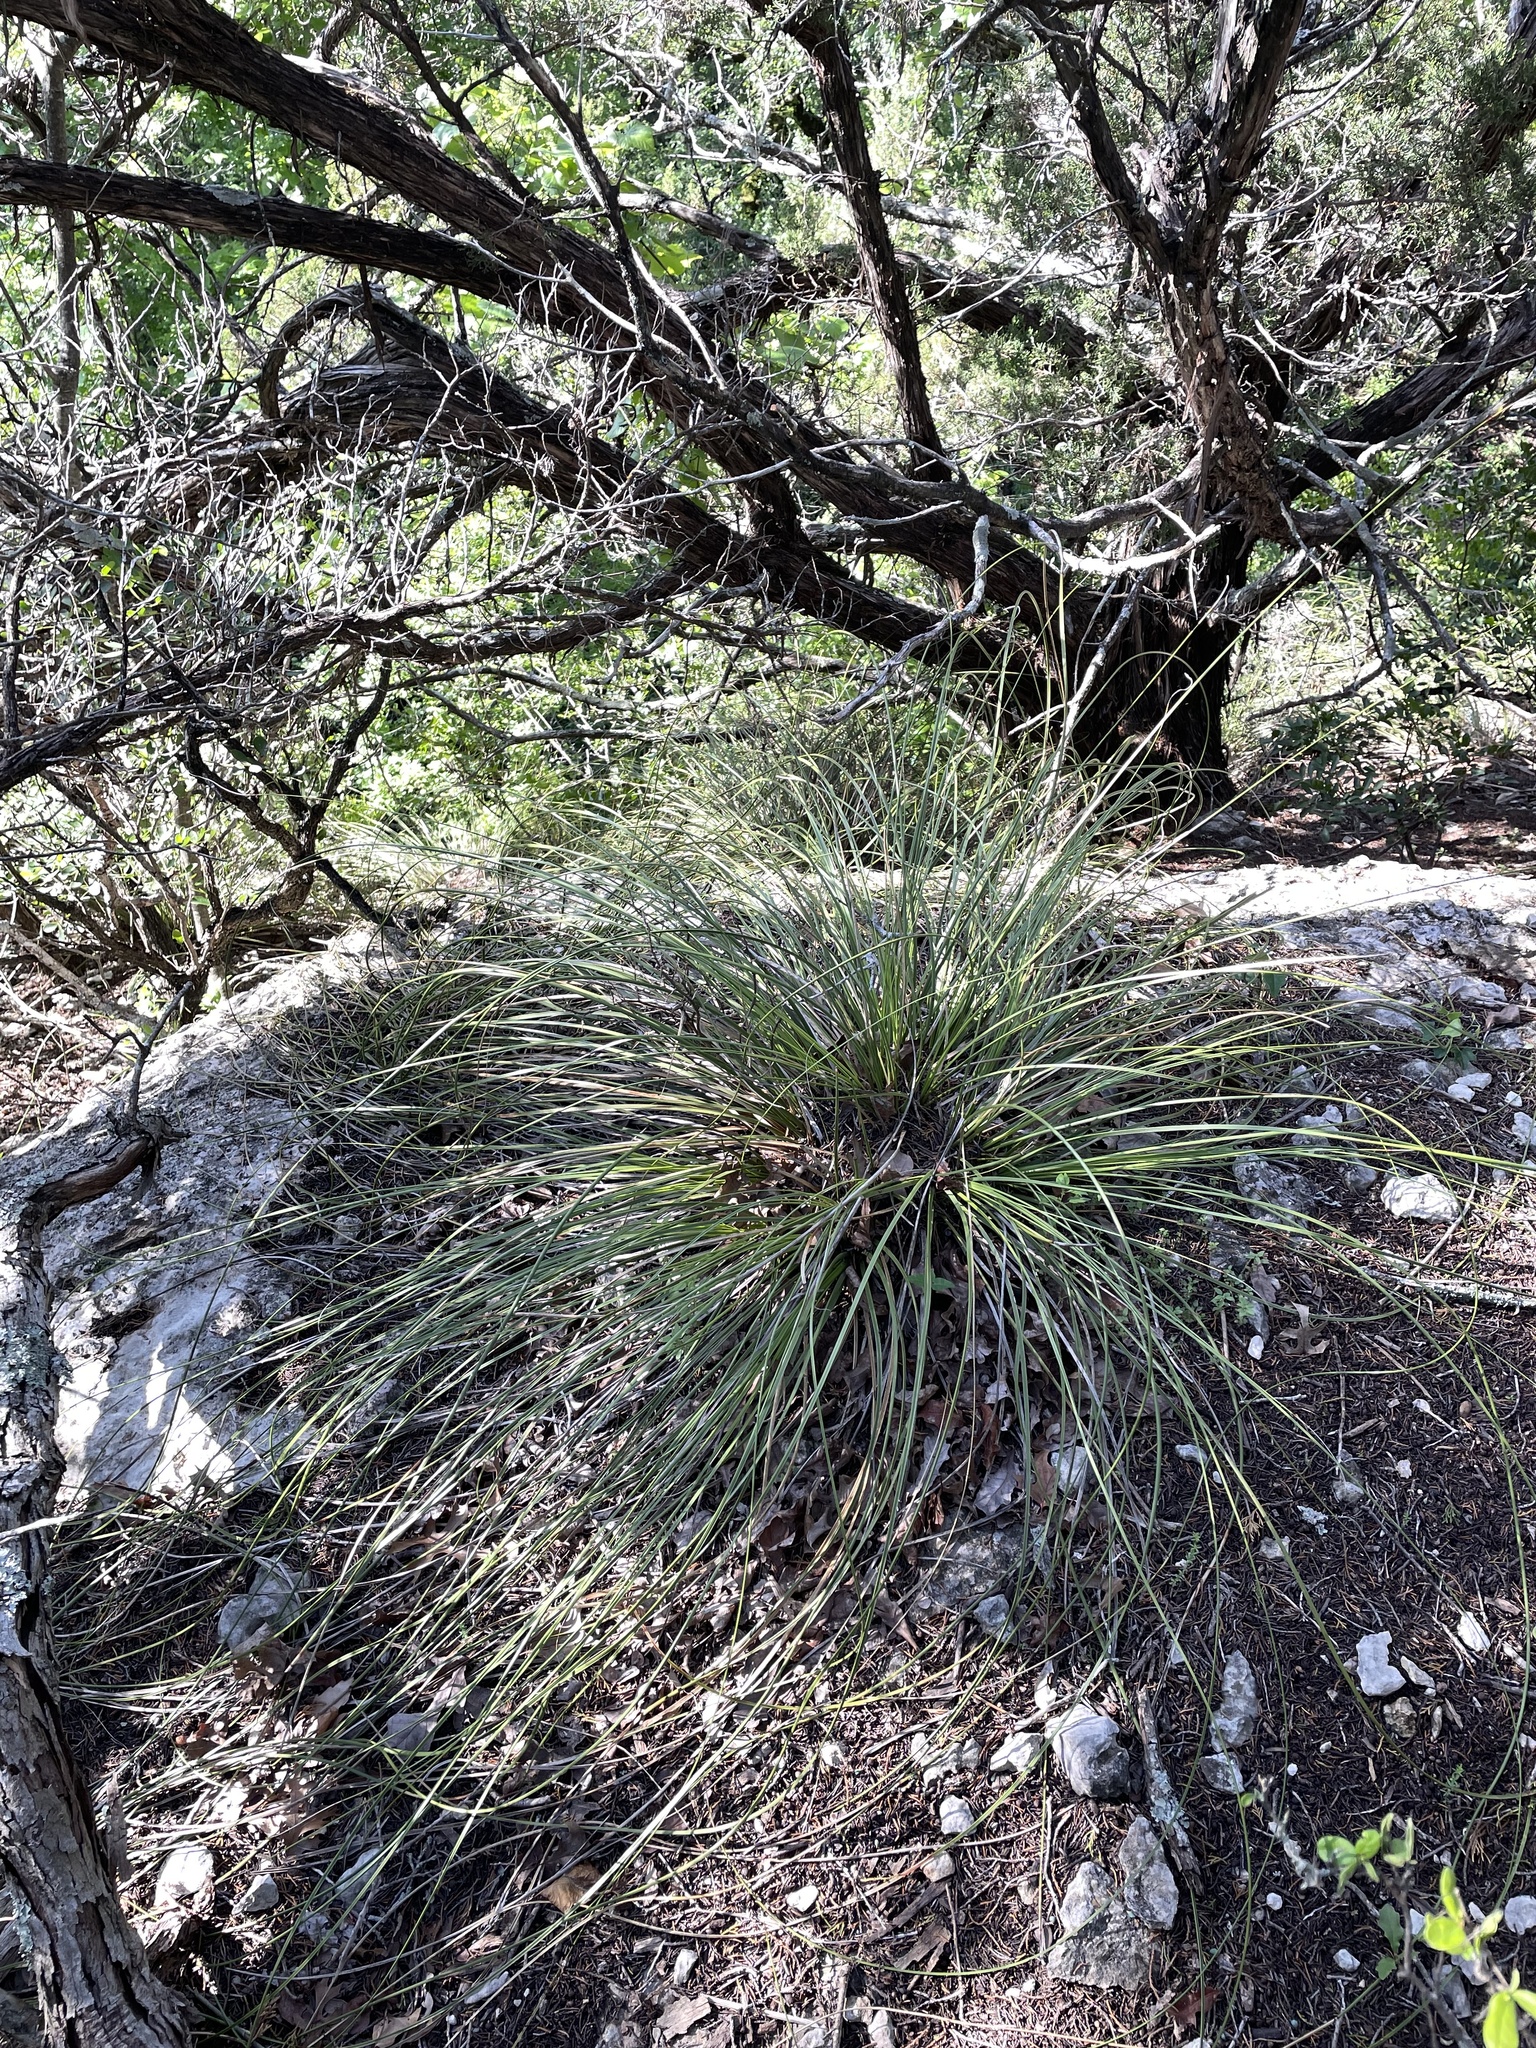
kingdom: Plantae
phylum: Tracheophyta
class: Liliopsida
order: Asparagales
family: Asparagaceae
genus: Nolina
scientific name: Nolina texana
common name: Texas sacahuiste
